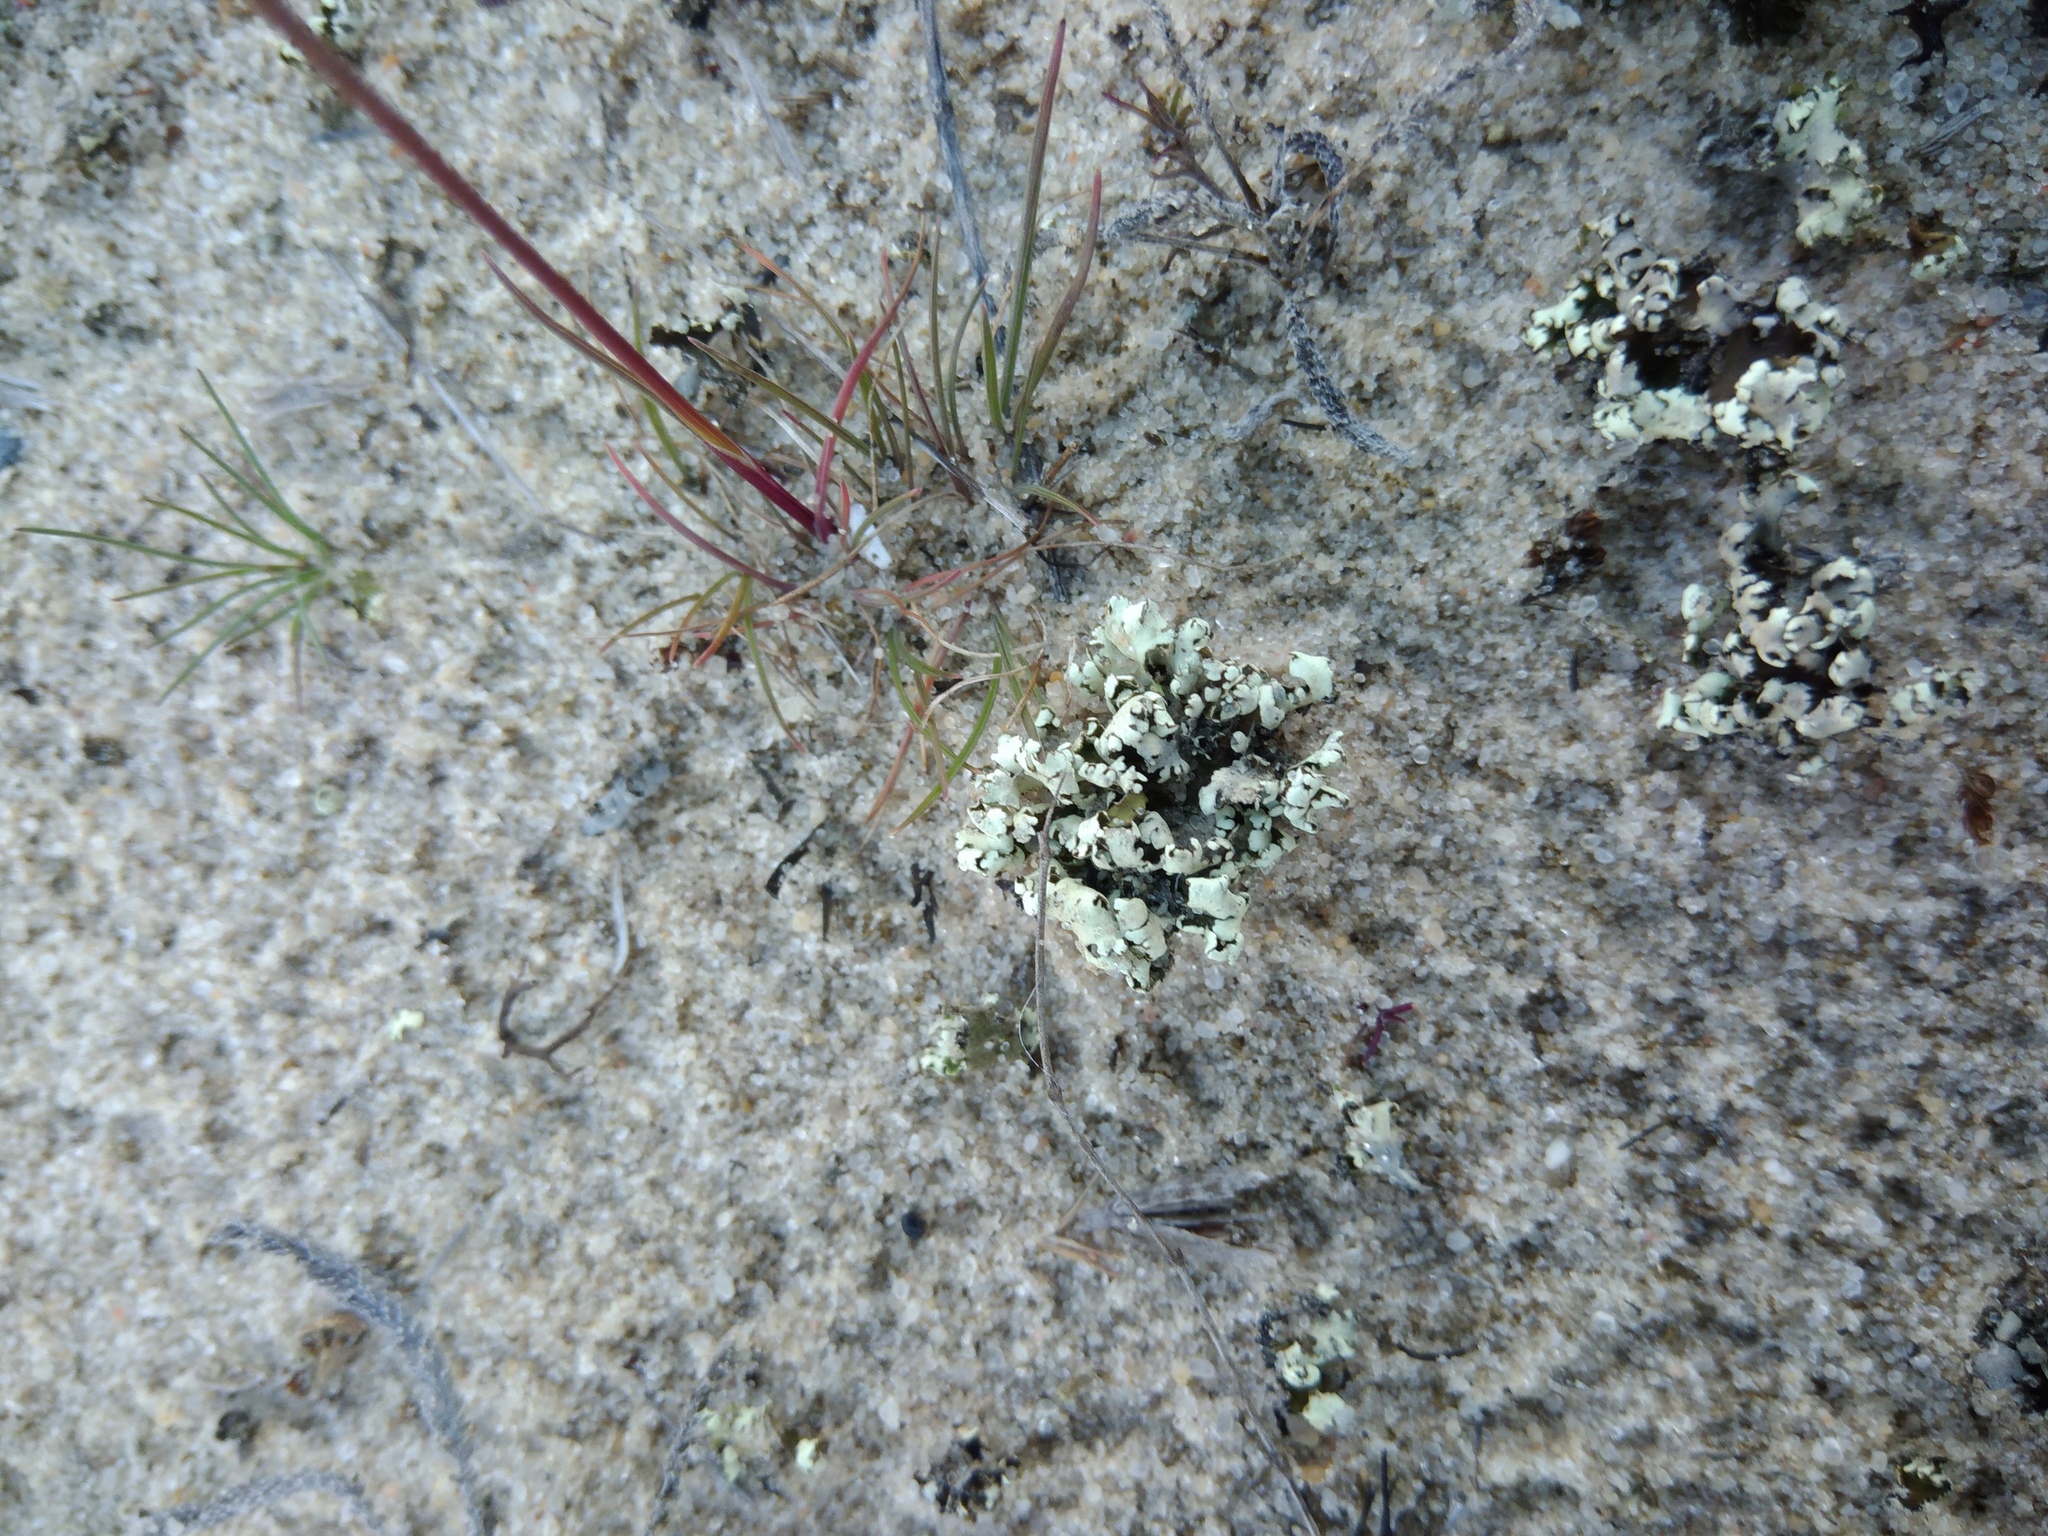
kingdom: Fungi
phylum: Ascomycota
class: Lecanoromycetes
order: Lecanorales
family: Cladoniaceae
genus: Cladonia
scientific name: Cladonia foliacea
